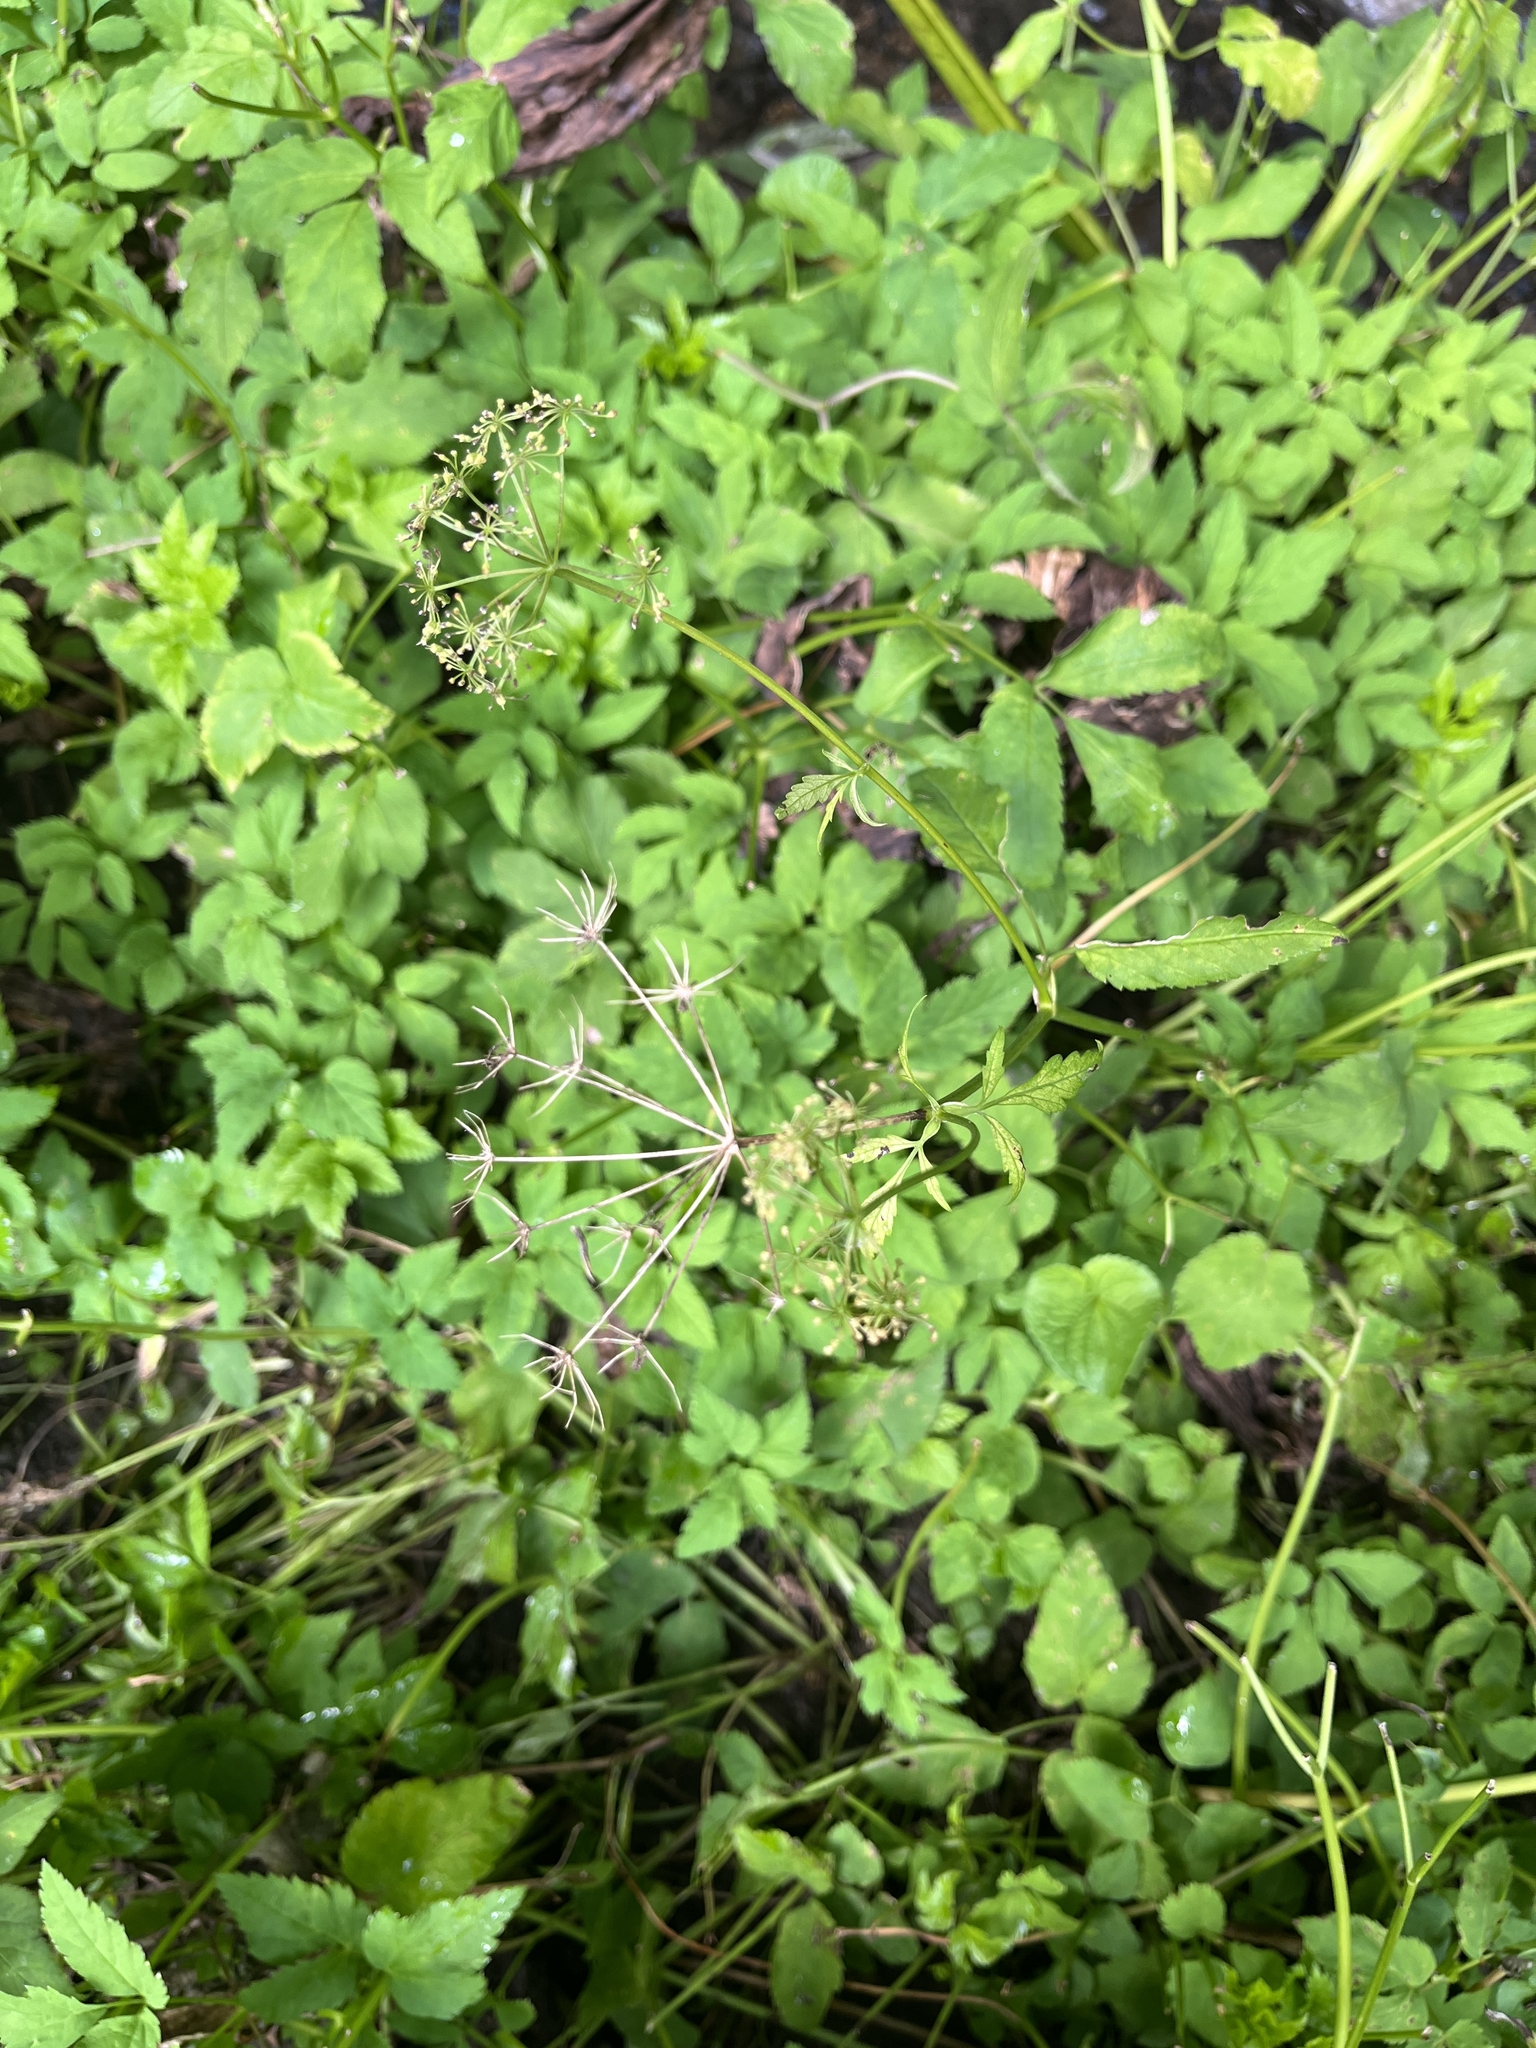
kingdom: Plantae
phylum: Tracheophyta
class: Magnoliopsida
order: Apiales
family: Apiaceae
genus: Aegopodium
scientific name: Aegopodium podagraria
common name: Ground-elder
